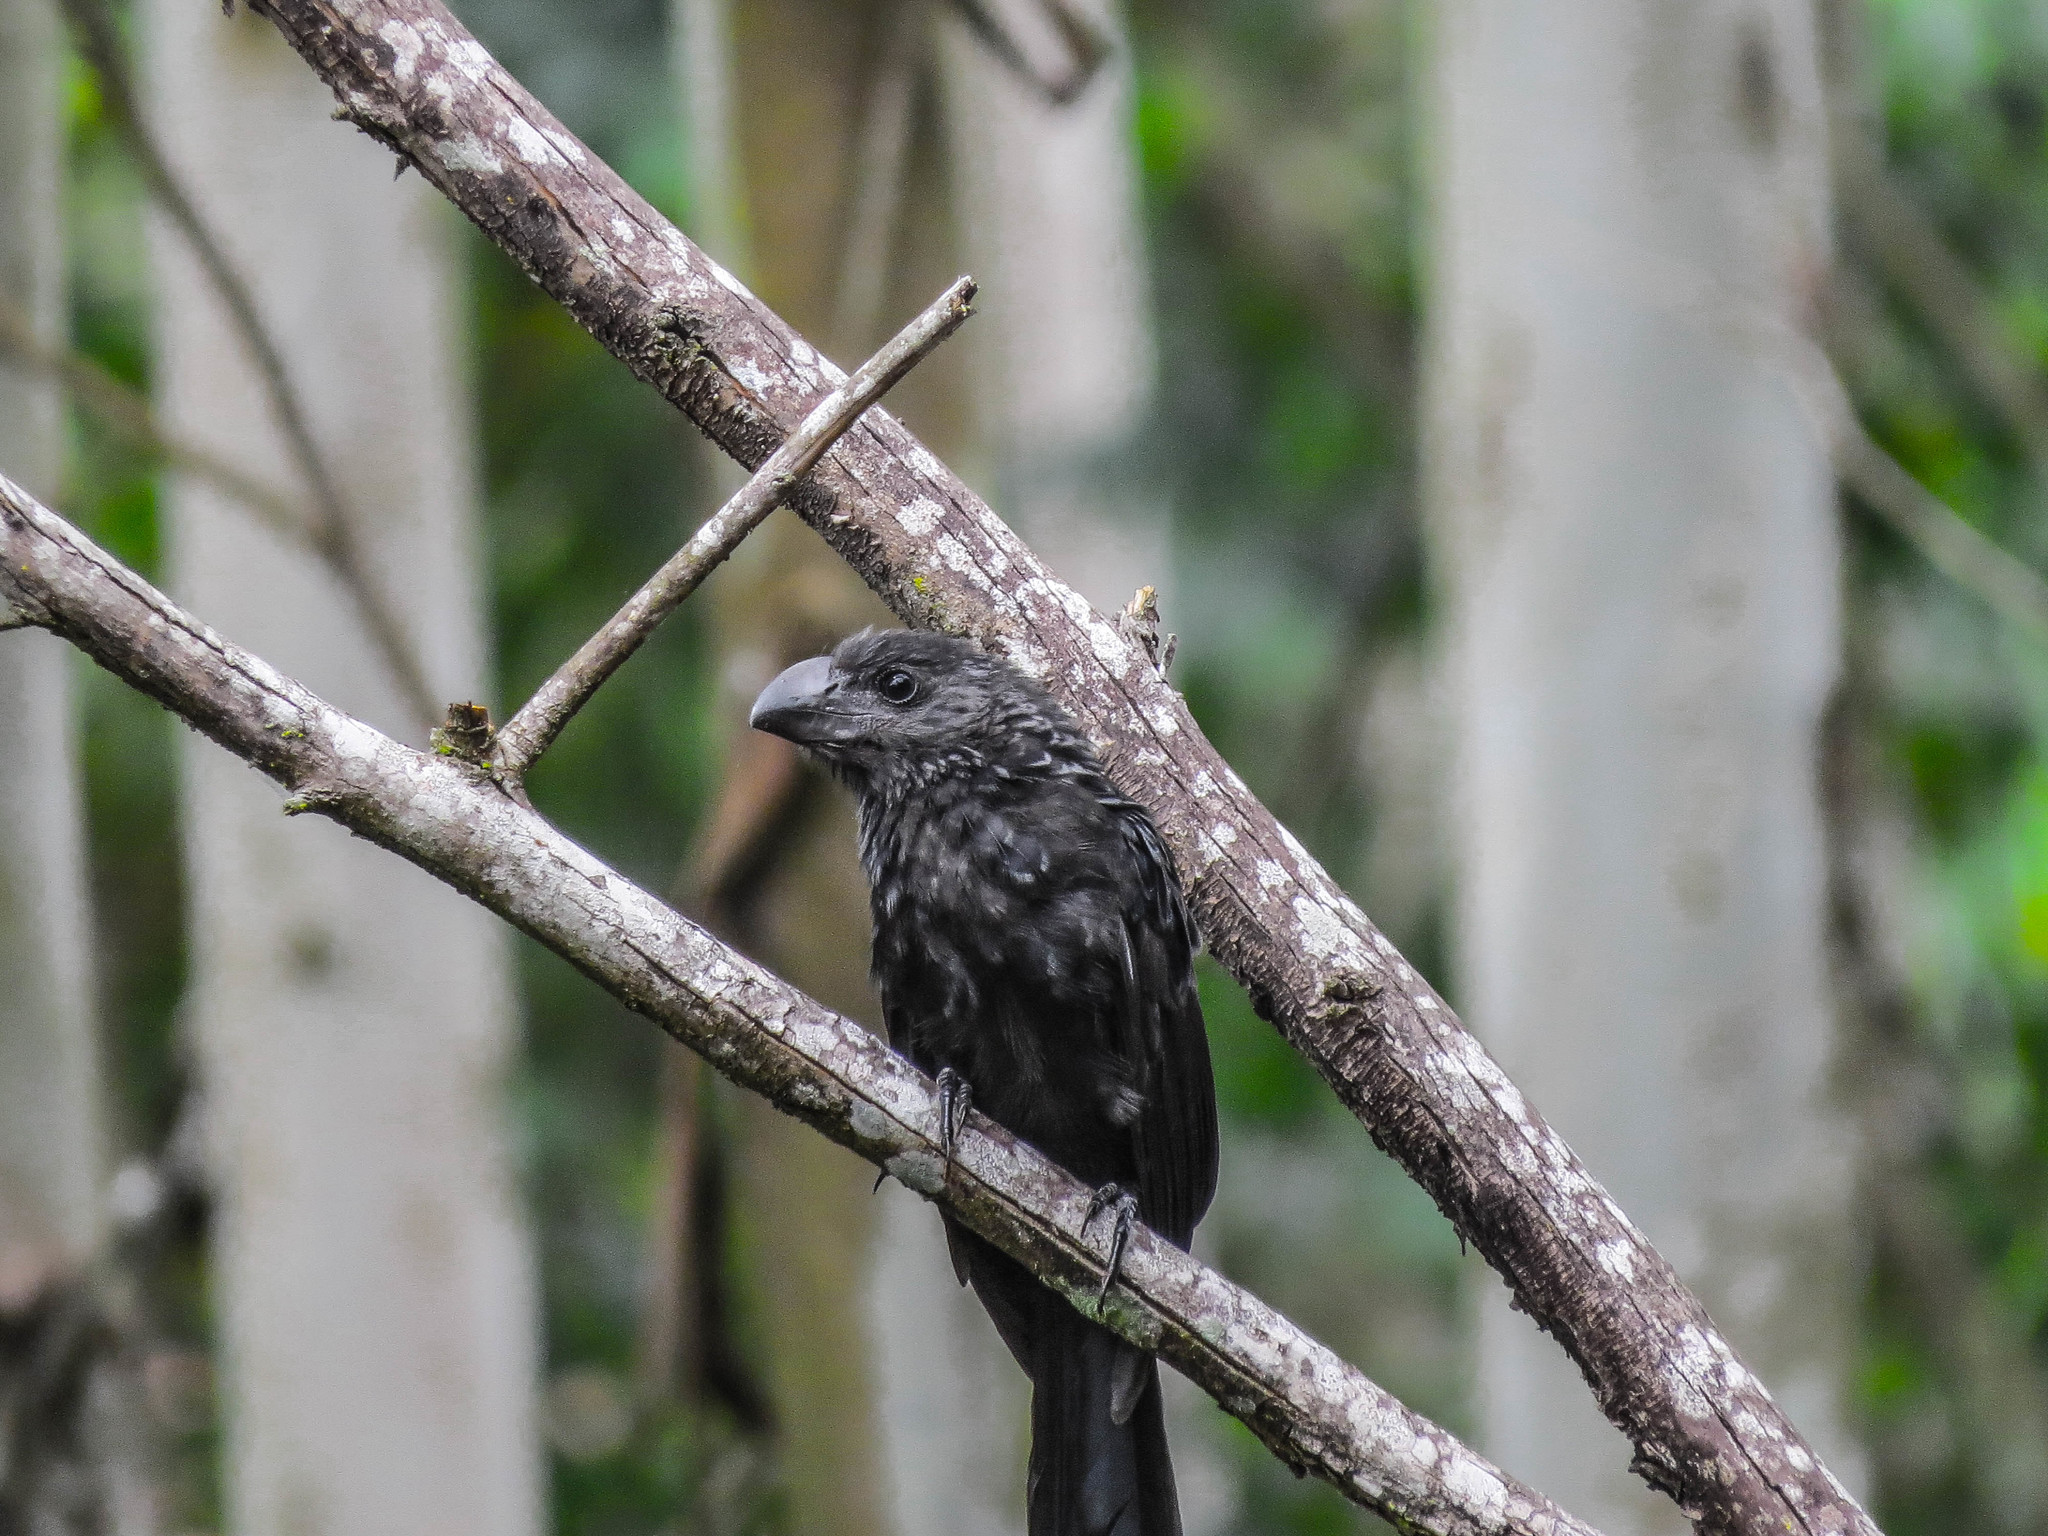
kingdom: Animalia
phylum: Chordata
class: Aves
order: Cuculiformes
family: Cuculidae
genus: Crotophaga
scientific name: Crotophaga ani
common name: Smooth-billed ani
